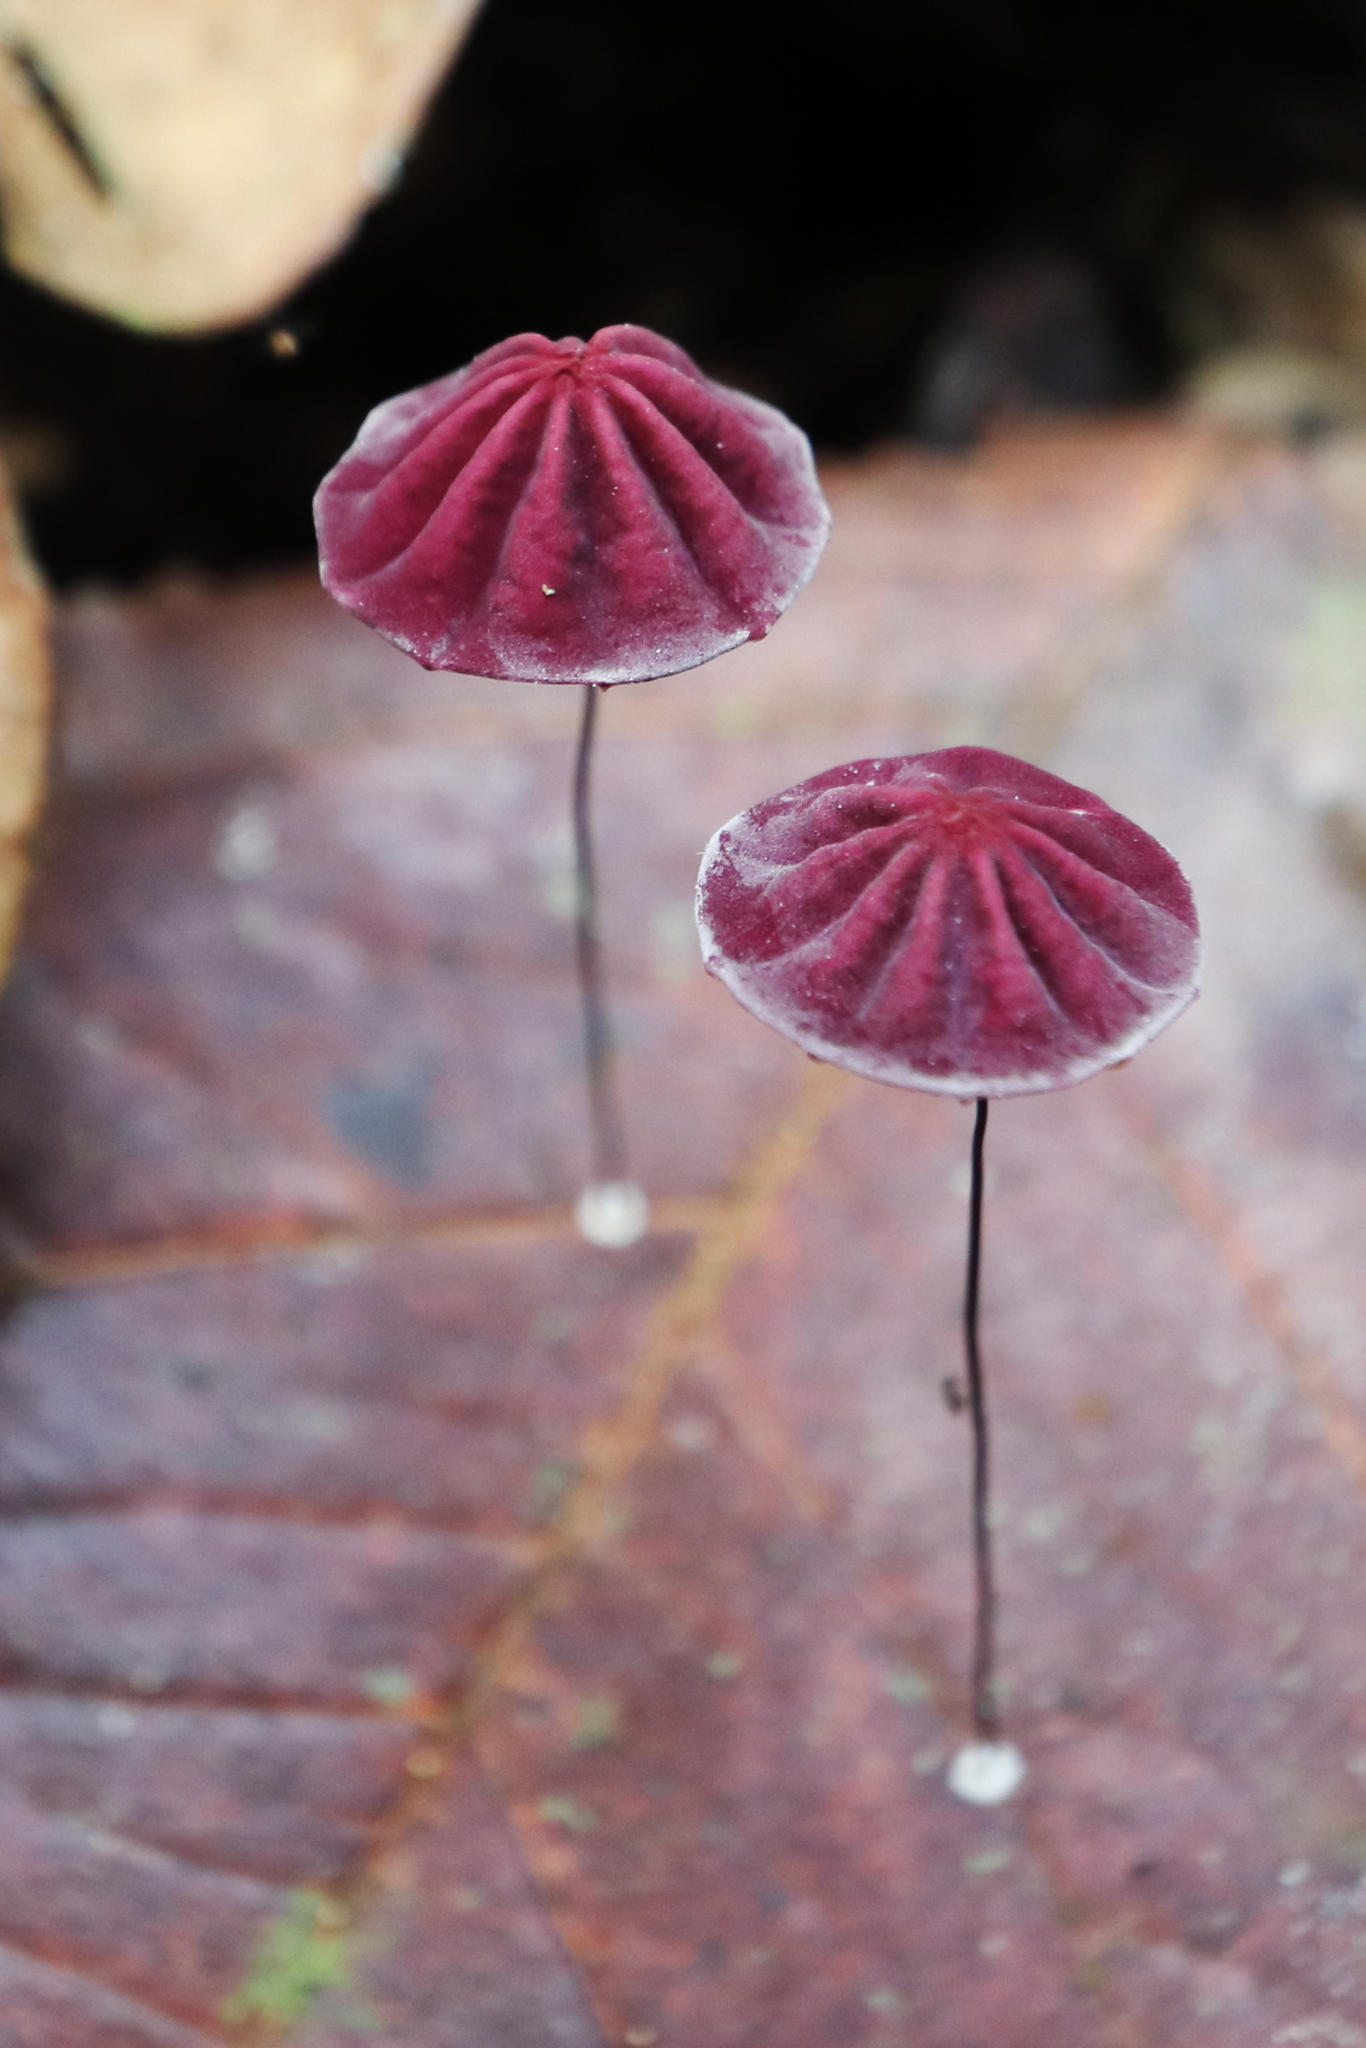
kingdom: Fungi
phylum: Basidiomycota
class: Agaricomycetes
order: Agaricales
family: Marasmiaceae
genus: Marasmius
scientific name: Marasmius haematocephalus
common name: Purple pinwheel
